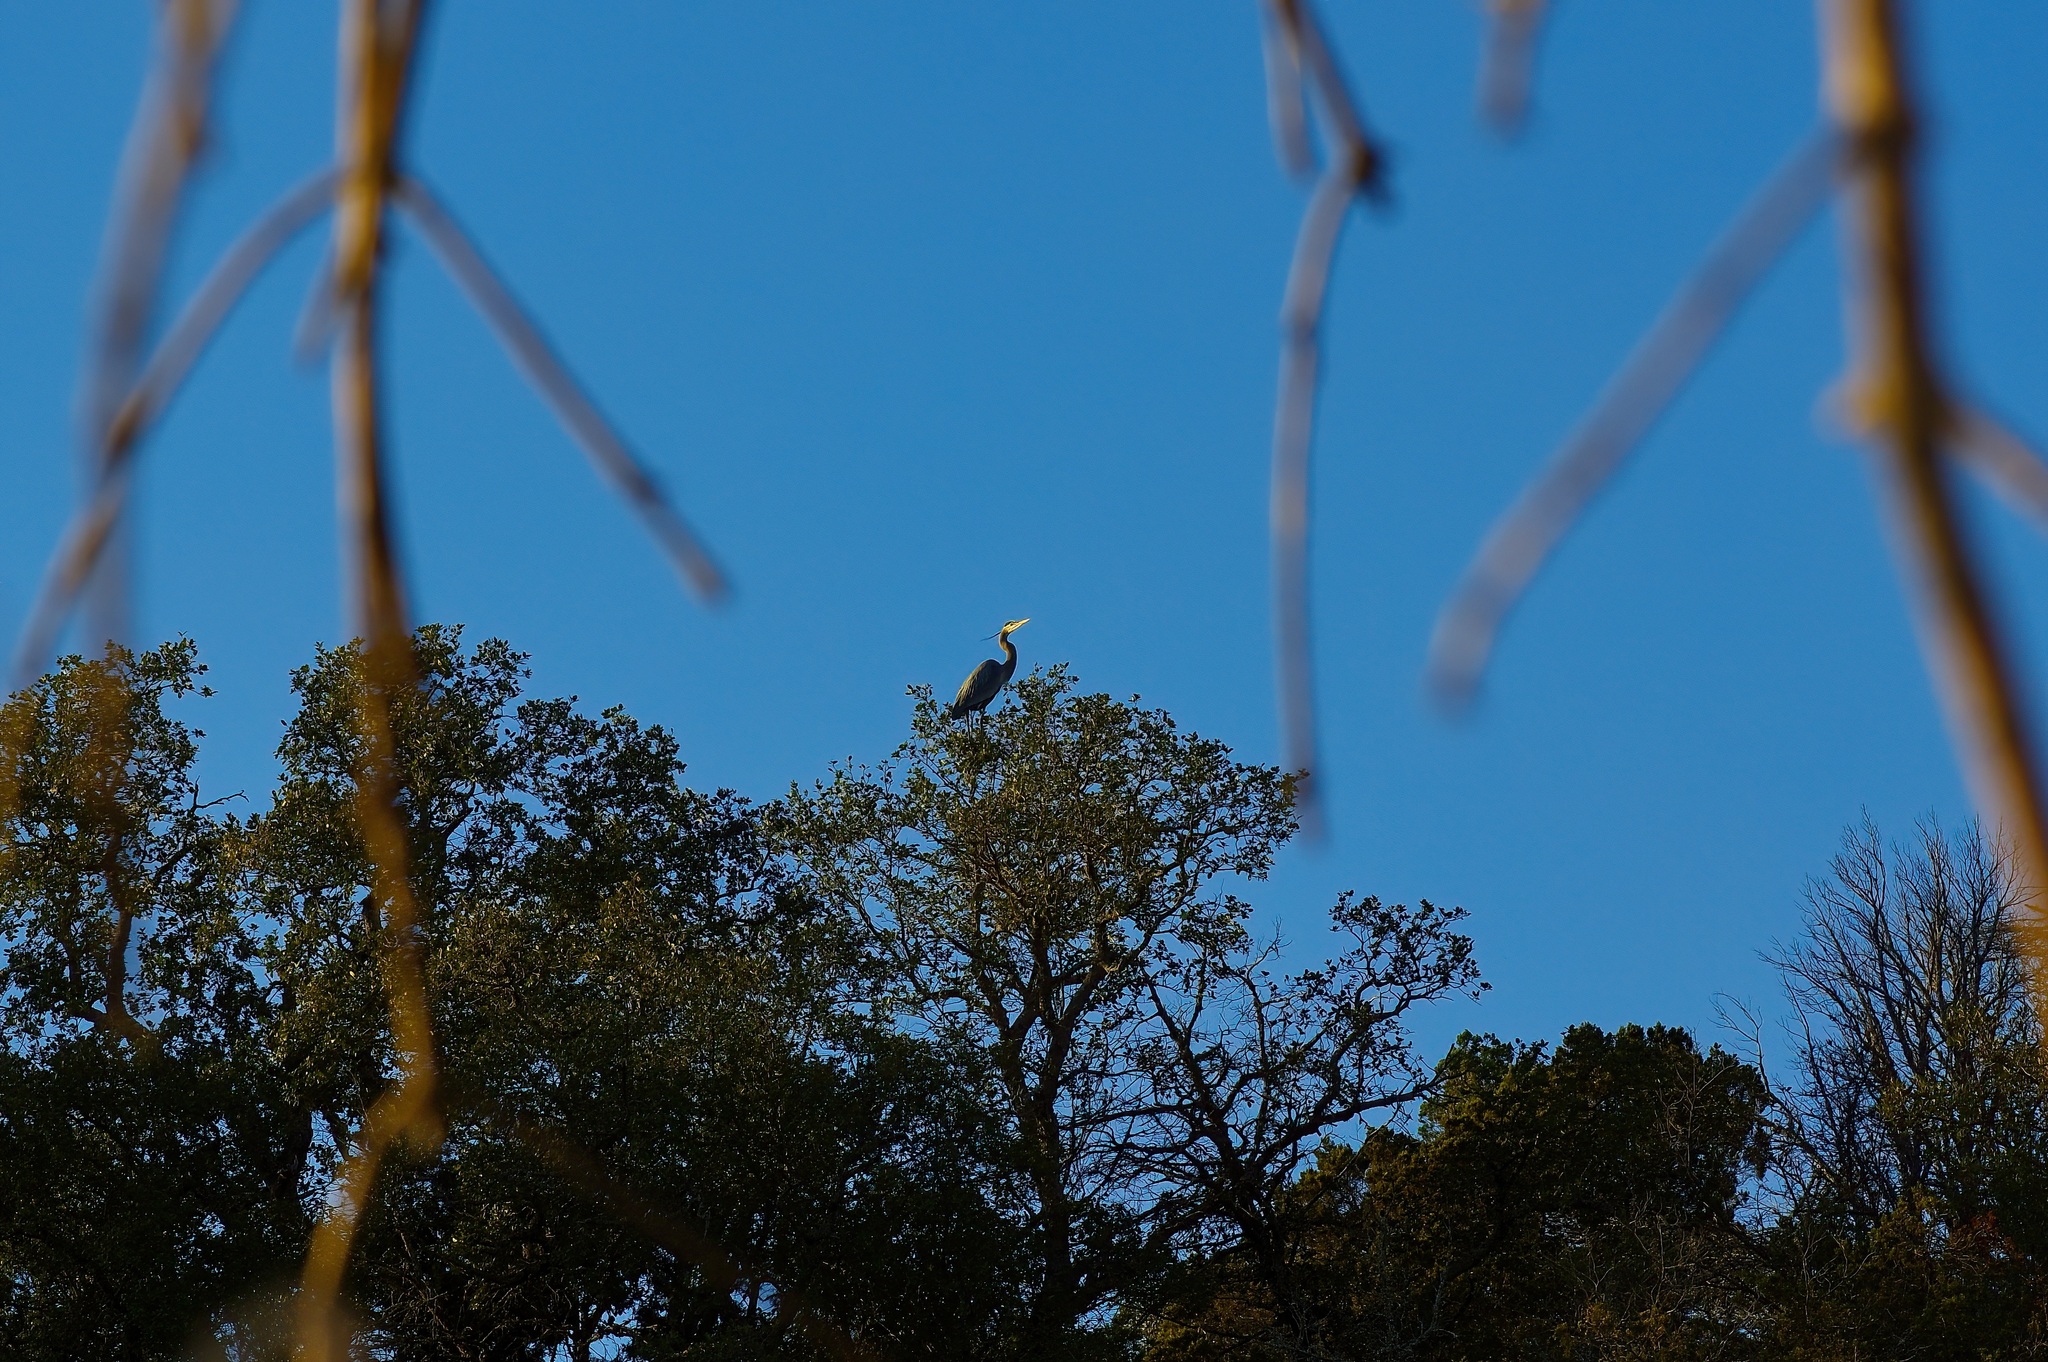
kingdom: Animalia
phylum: Chordata
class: Aves
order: Pelecaniformes
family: Ardeidae
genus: Ardea
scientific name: Ardea herodias
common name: Great blue heron
